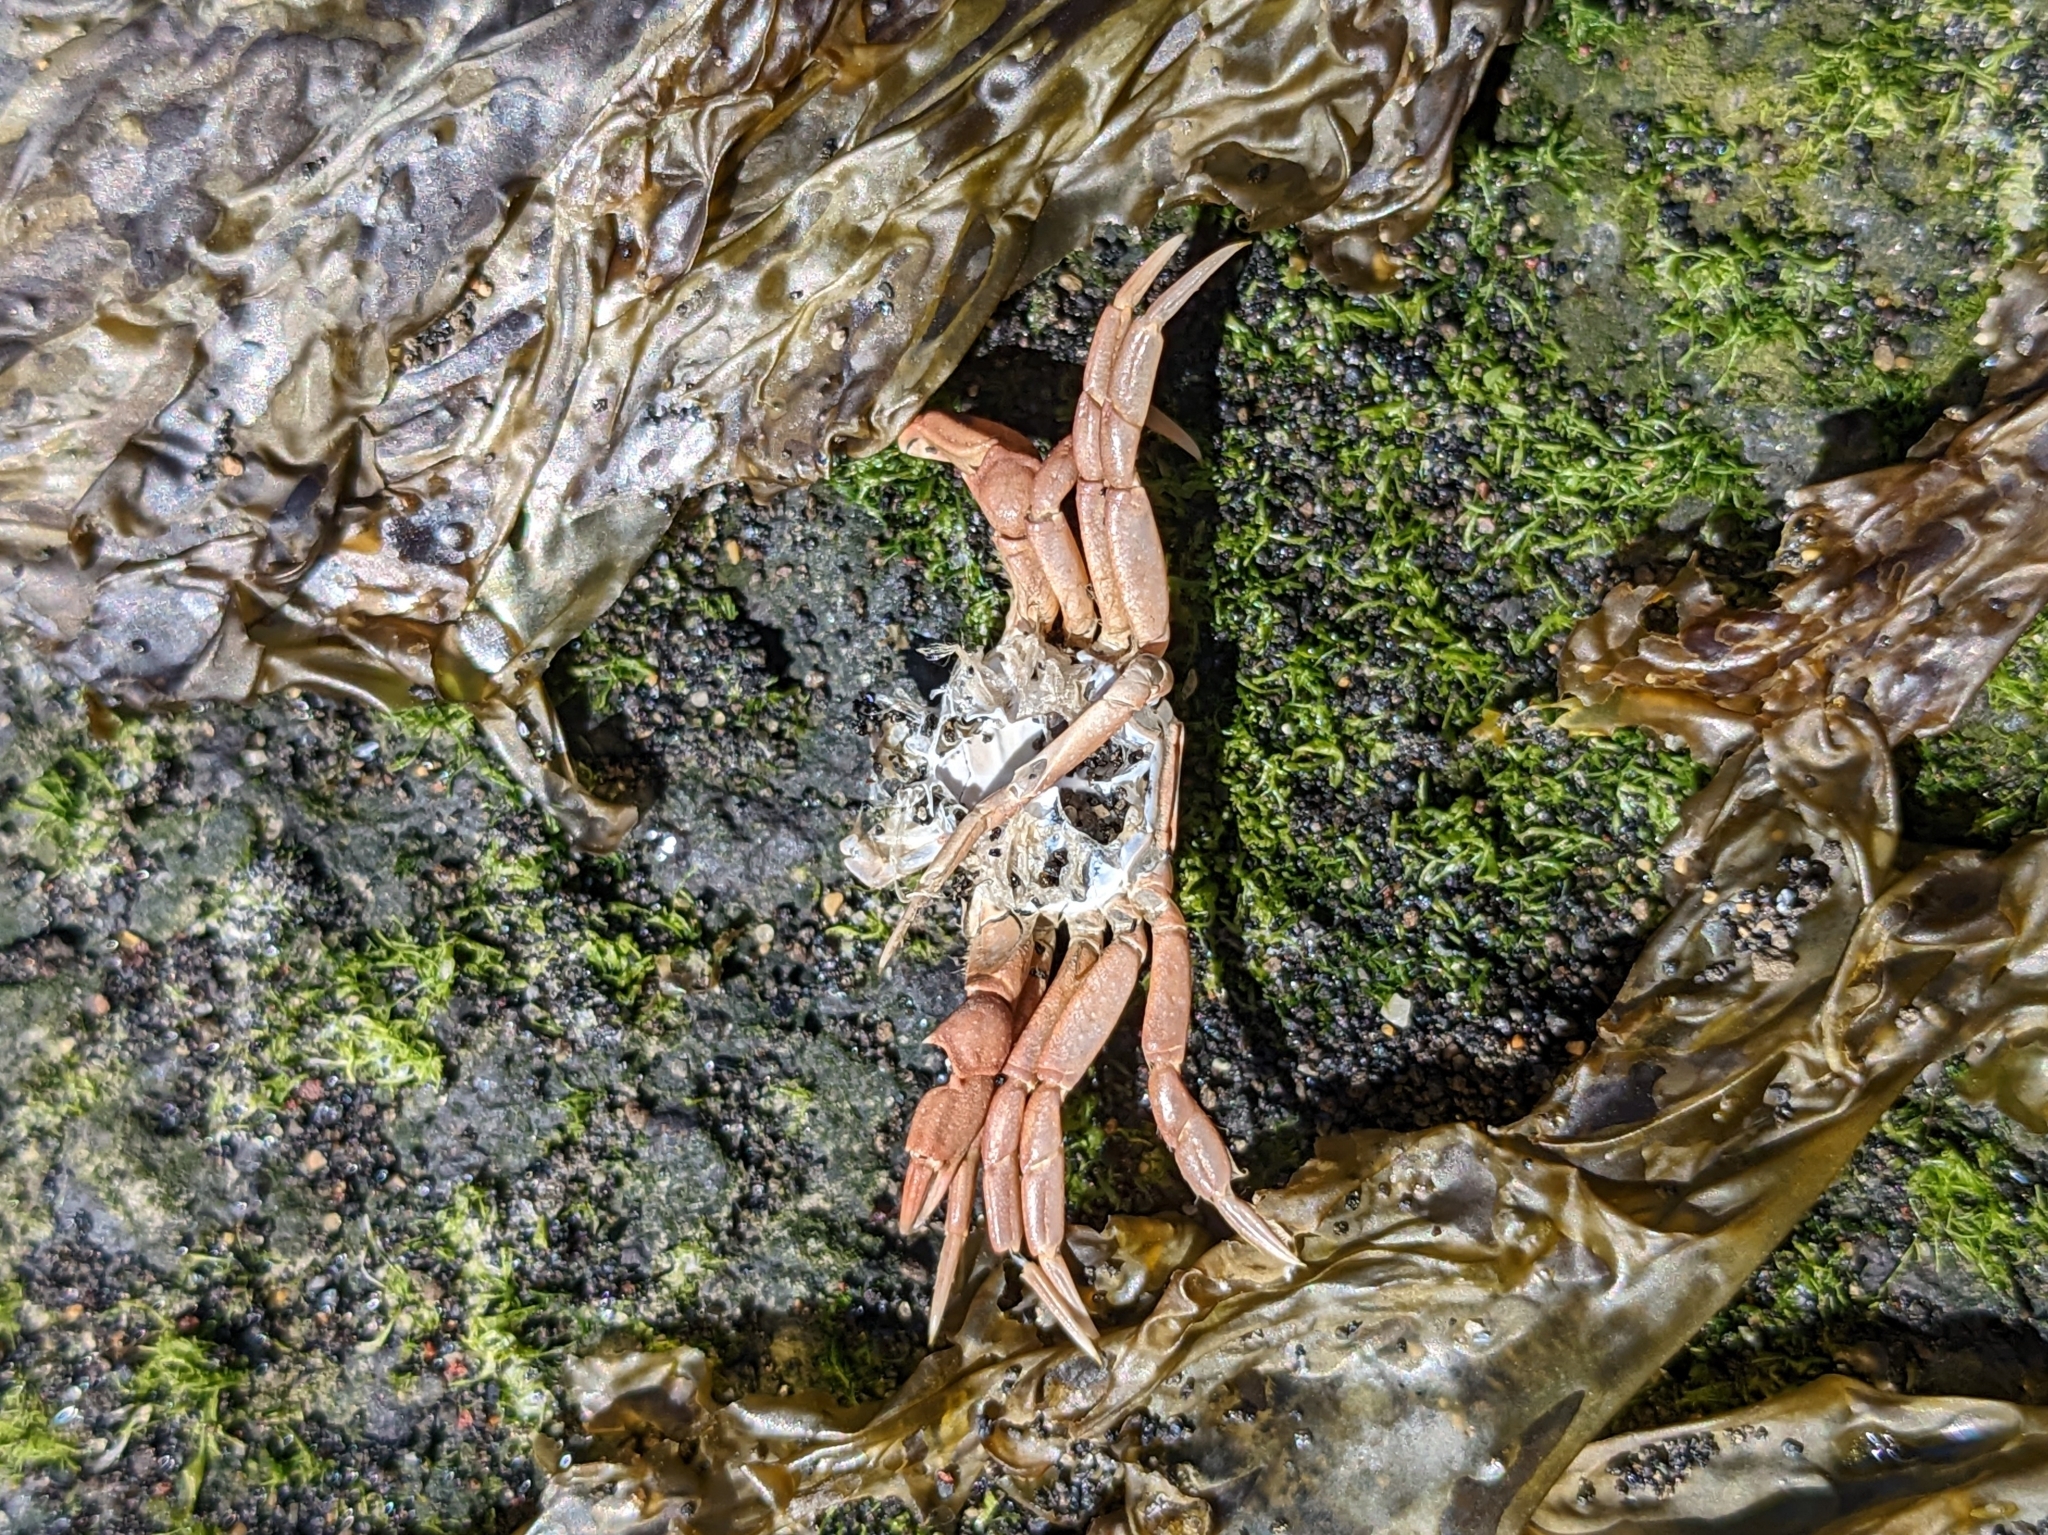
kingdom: Animalia
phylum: Arthropoda
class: Malacostraca
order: Decapoda
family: Carcinidae
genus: Carcinus
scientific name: Carcinus maenas
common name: European green crab
